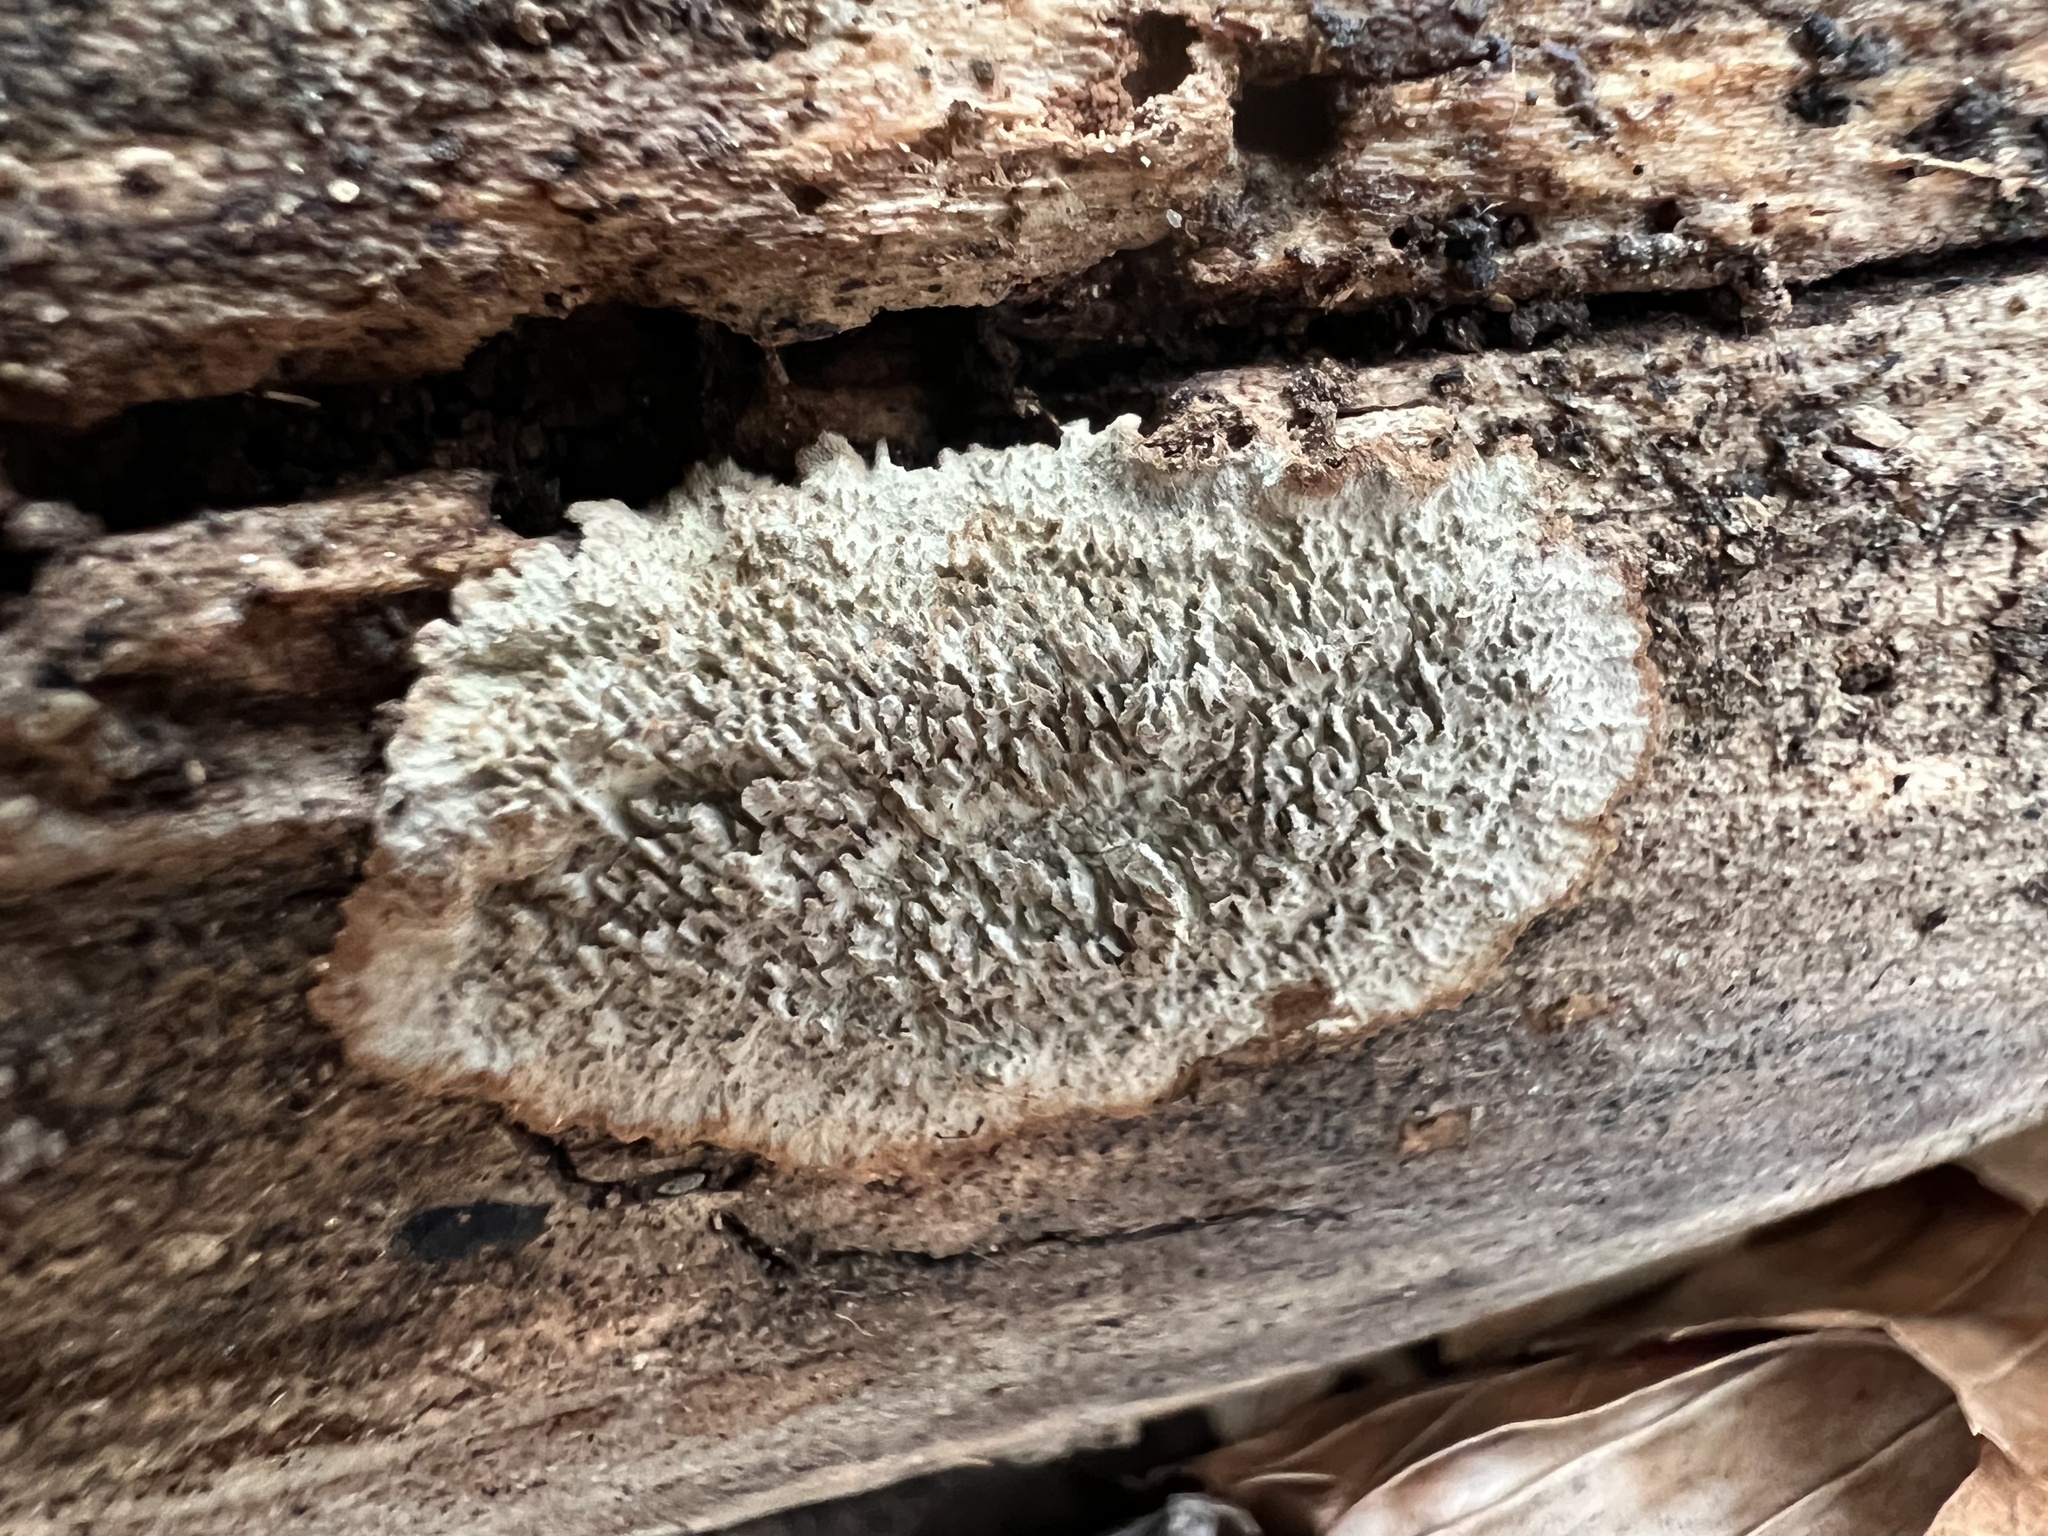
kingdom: Fungi
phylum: Basidiomycota
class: Agaricomycetes
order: Polyporales
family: Polyporaceae
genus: Dentocorticium
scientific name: Dentocorticium portoricense
